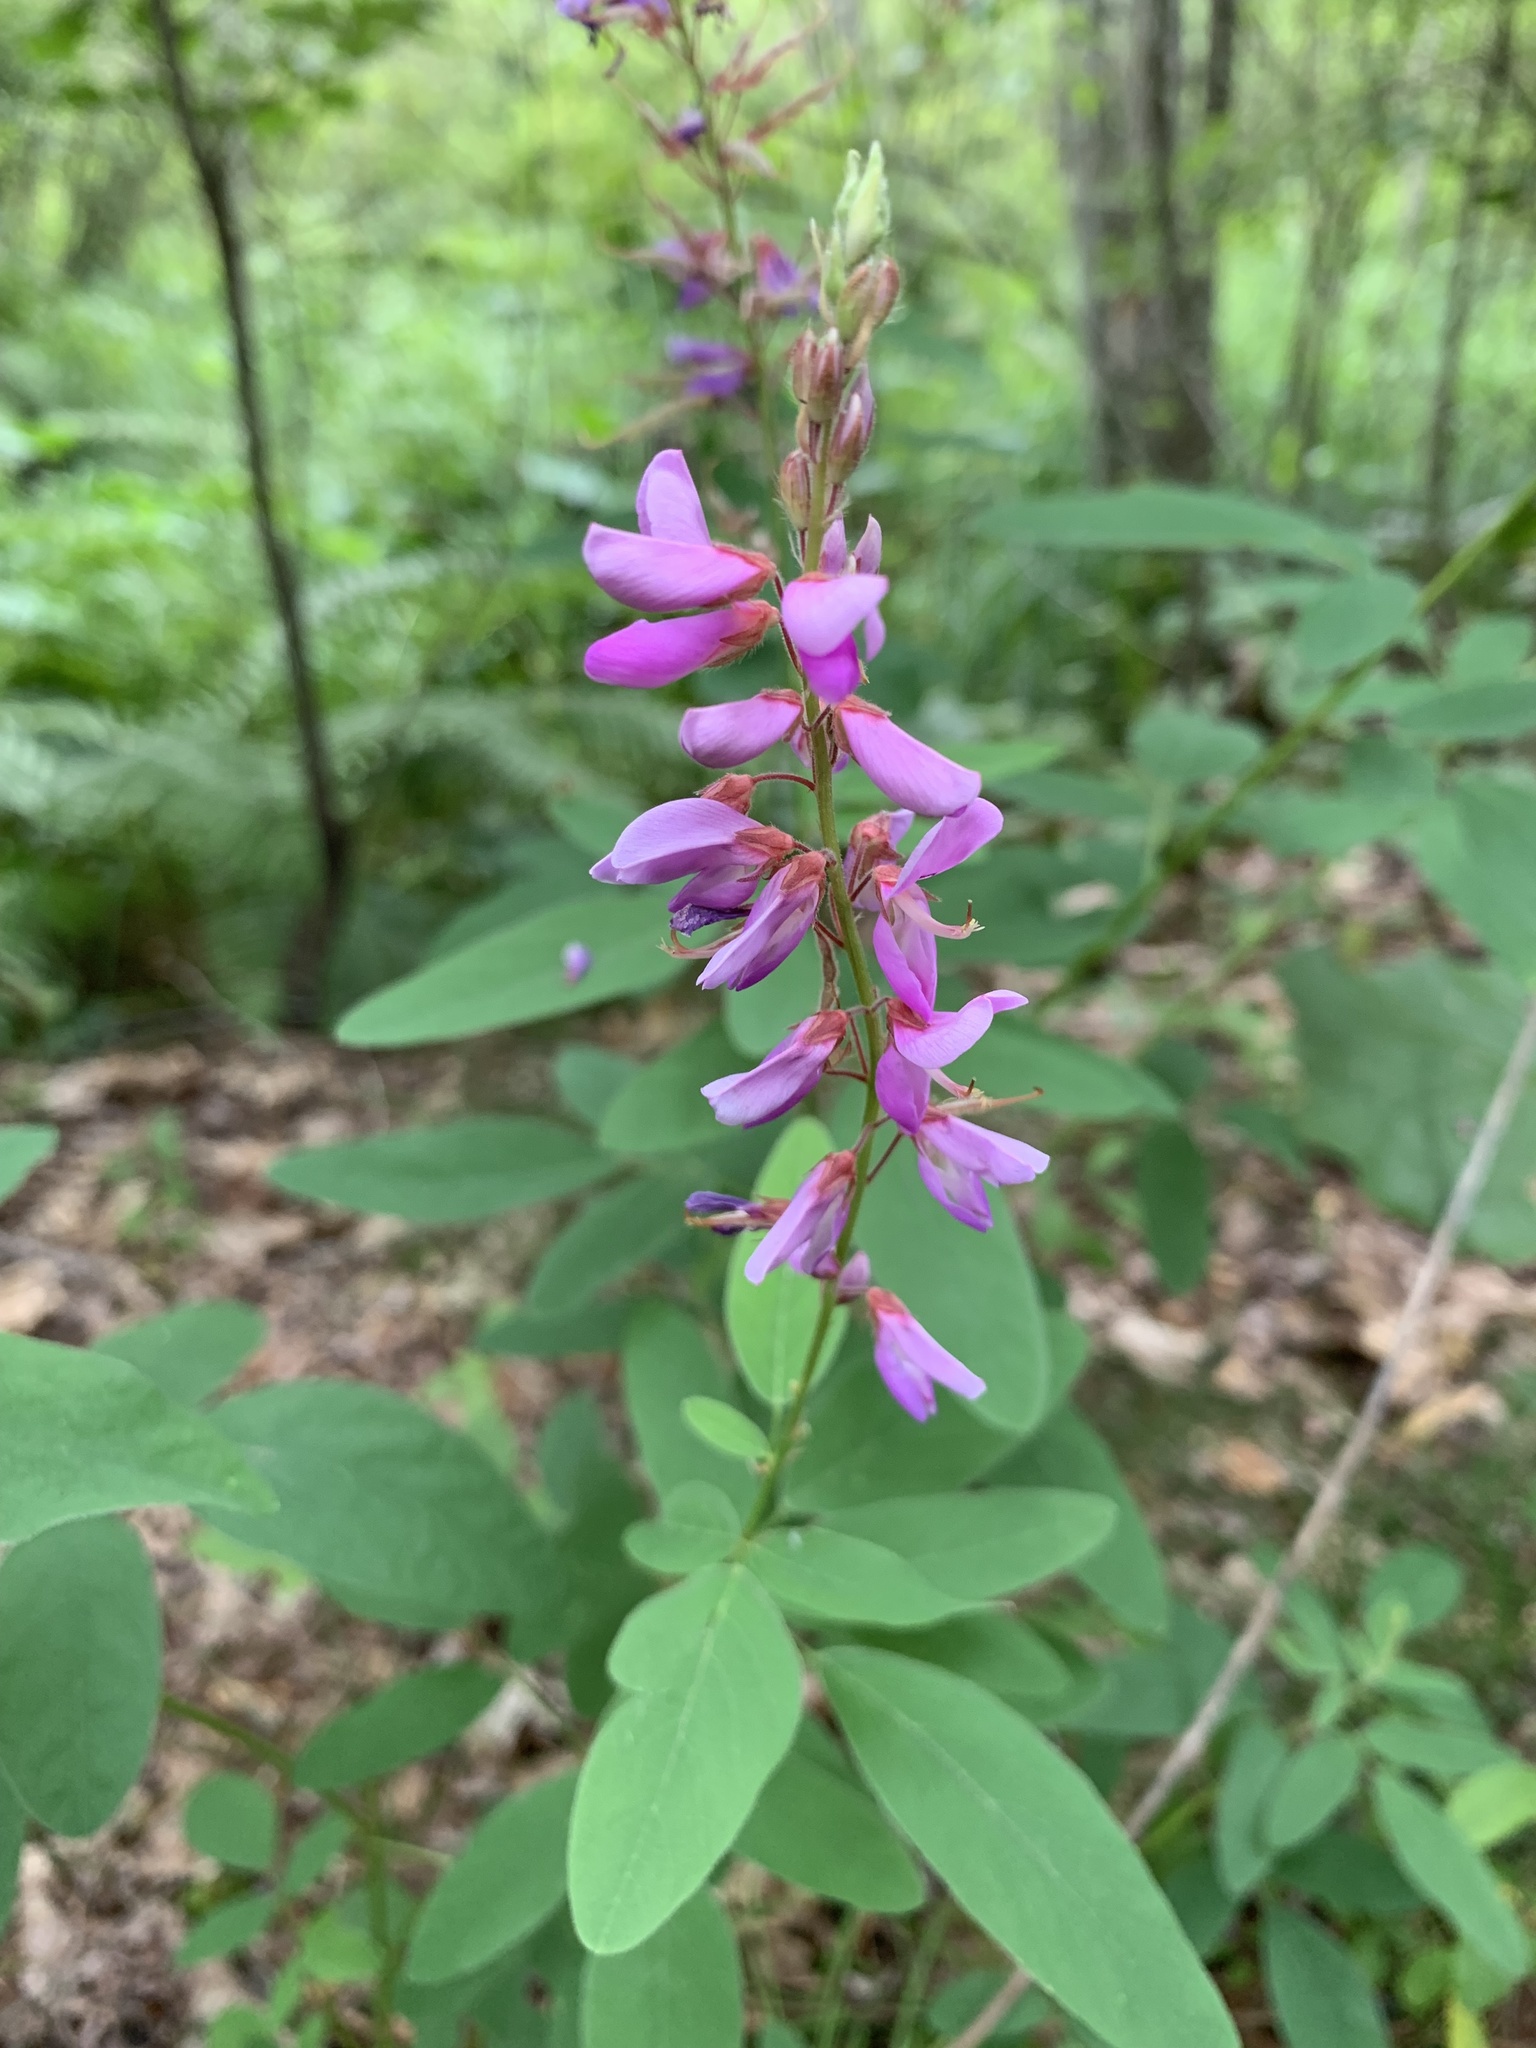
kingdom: Plantae
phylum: Tracheophyta
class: Magnoliopsida
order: Fabales
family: Fabaceae
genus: Desmodium
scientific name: Desmodium canadense
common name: Canada tick-trefoil
